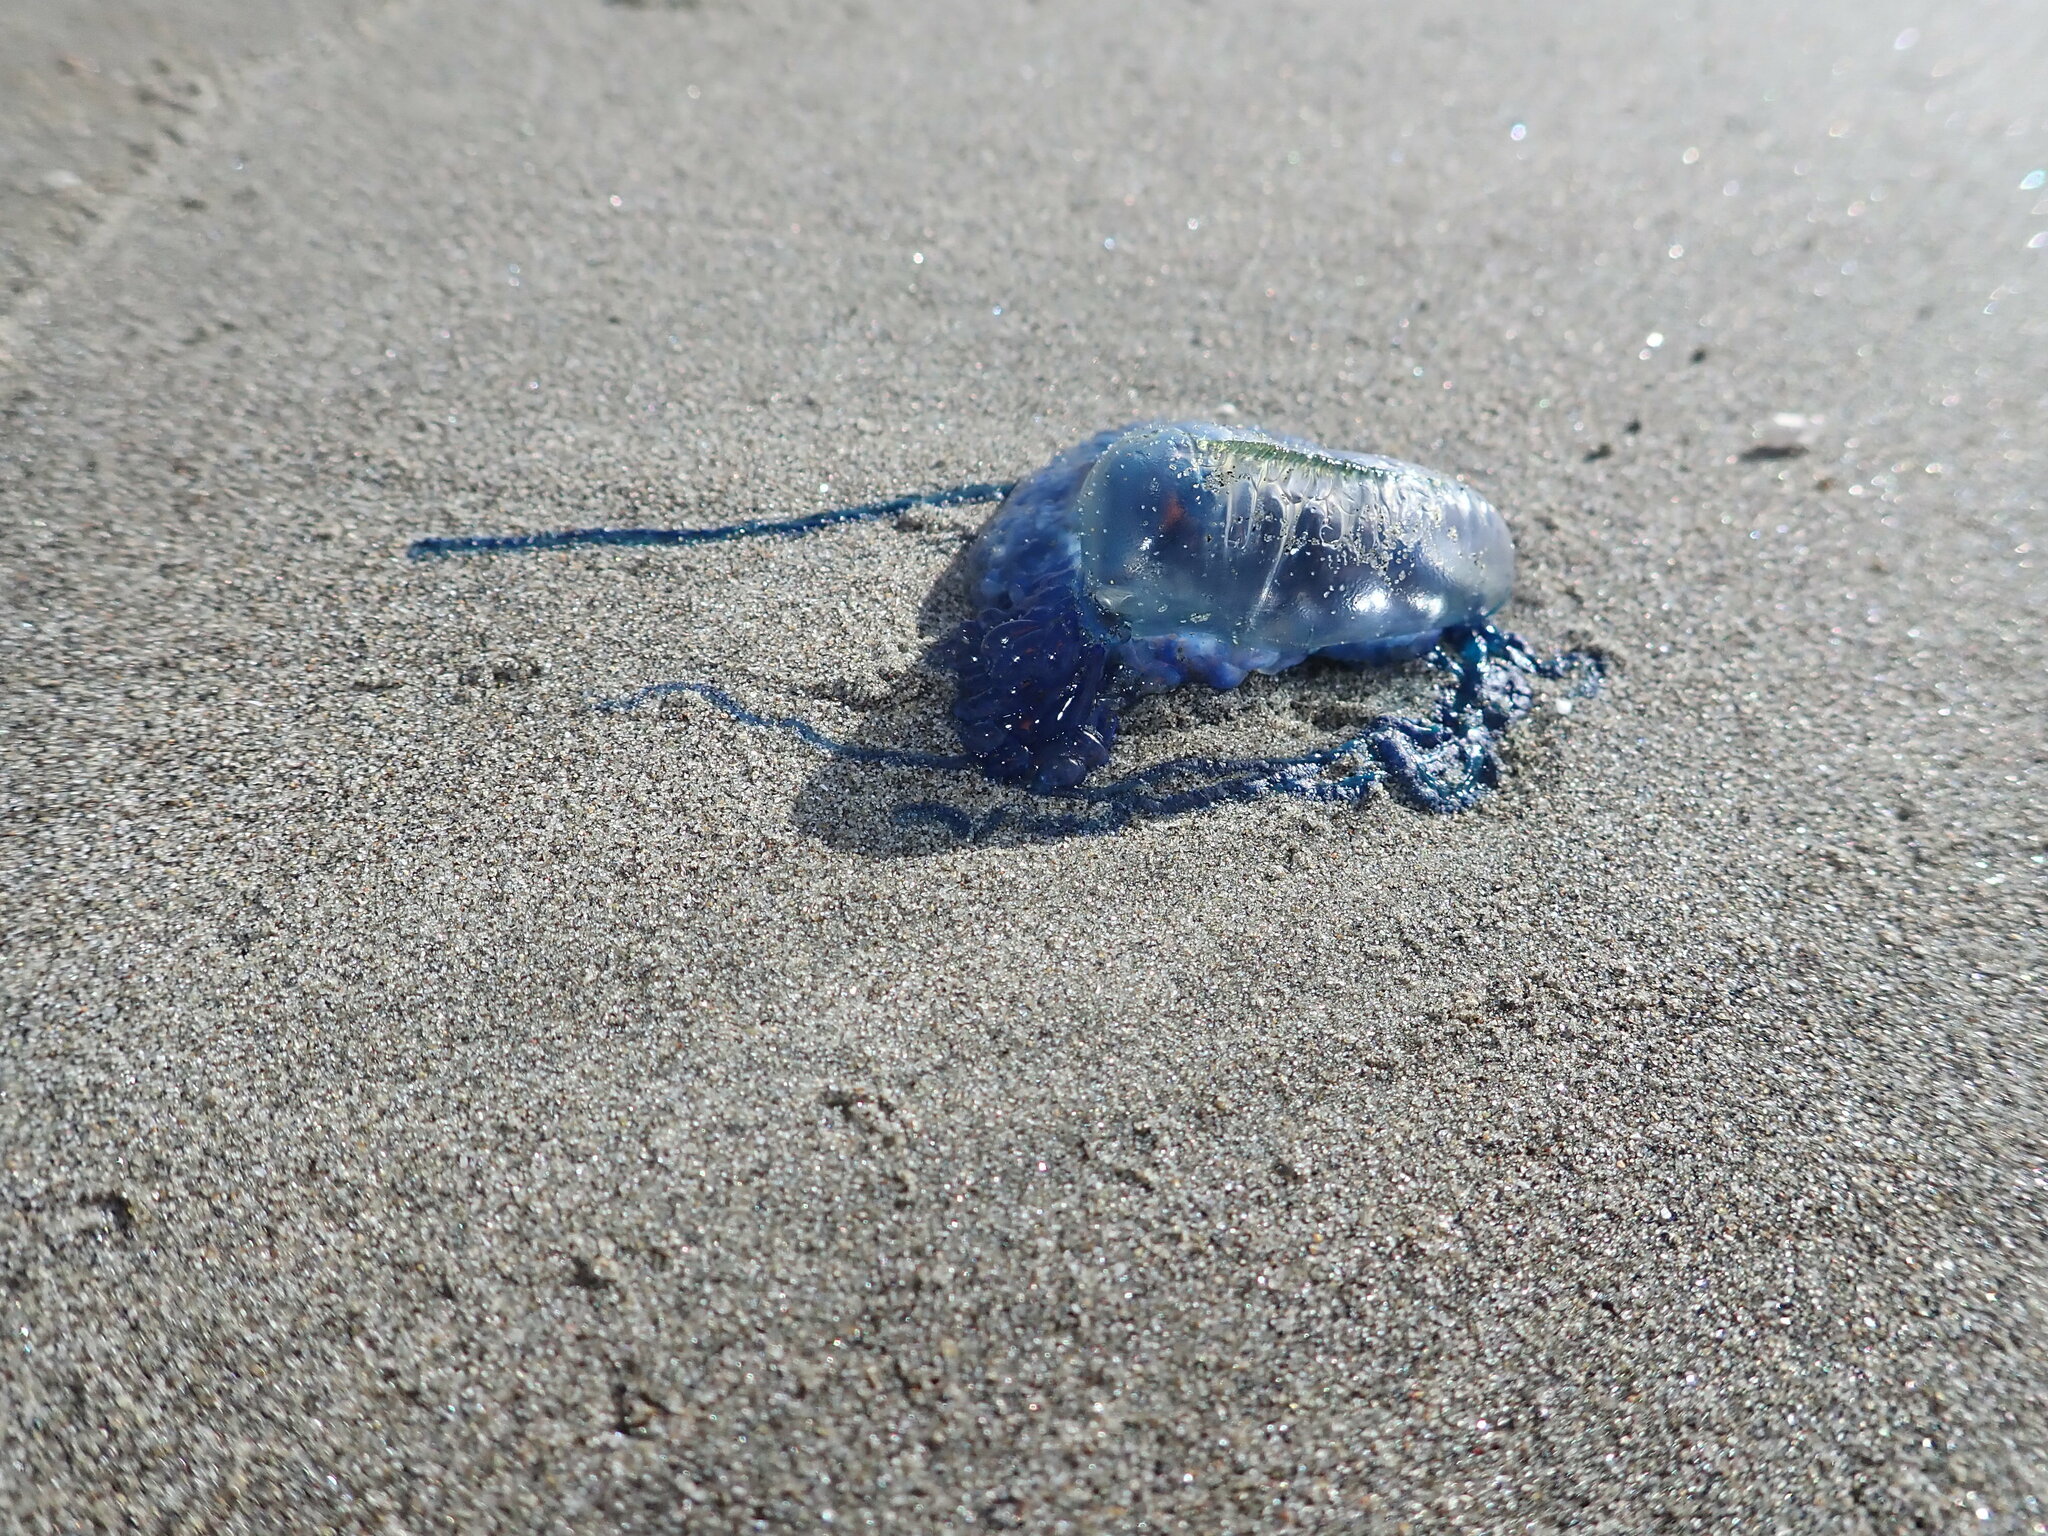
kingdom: Animalia
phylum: Cnidaria
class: Hydrozoa
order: Siphonophorae
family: Physaliidae
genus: Physalia
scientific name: Physalia physalis
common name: Portuguese man-of-war
